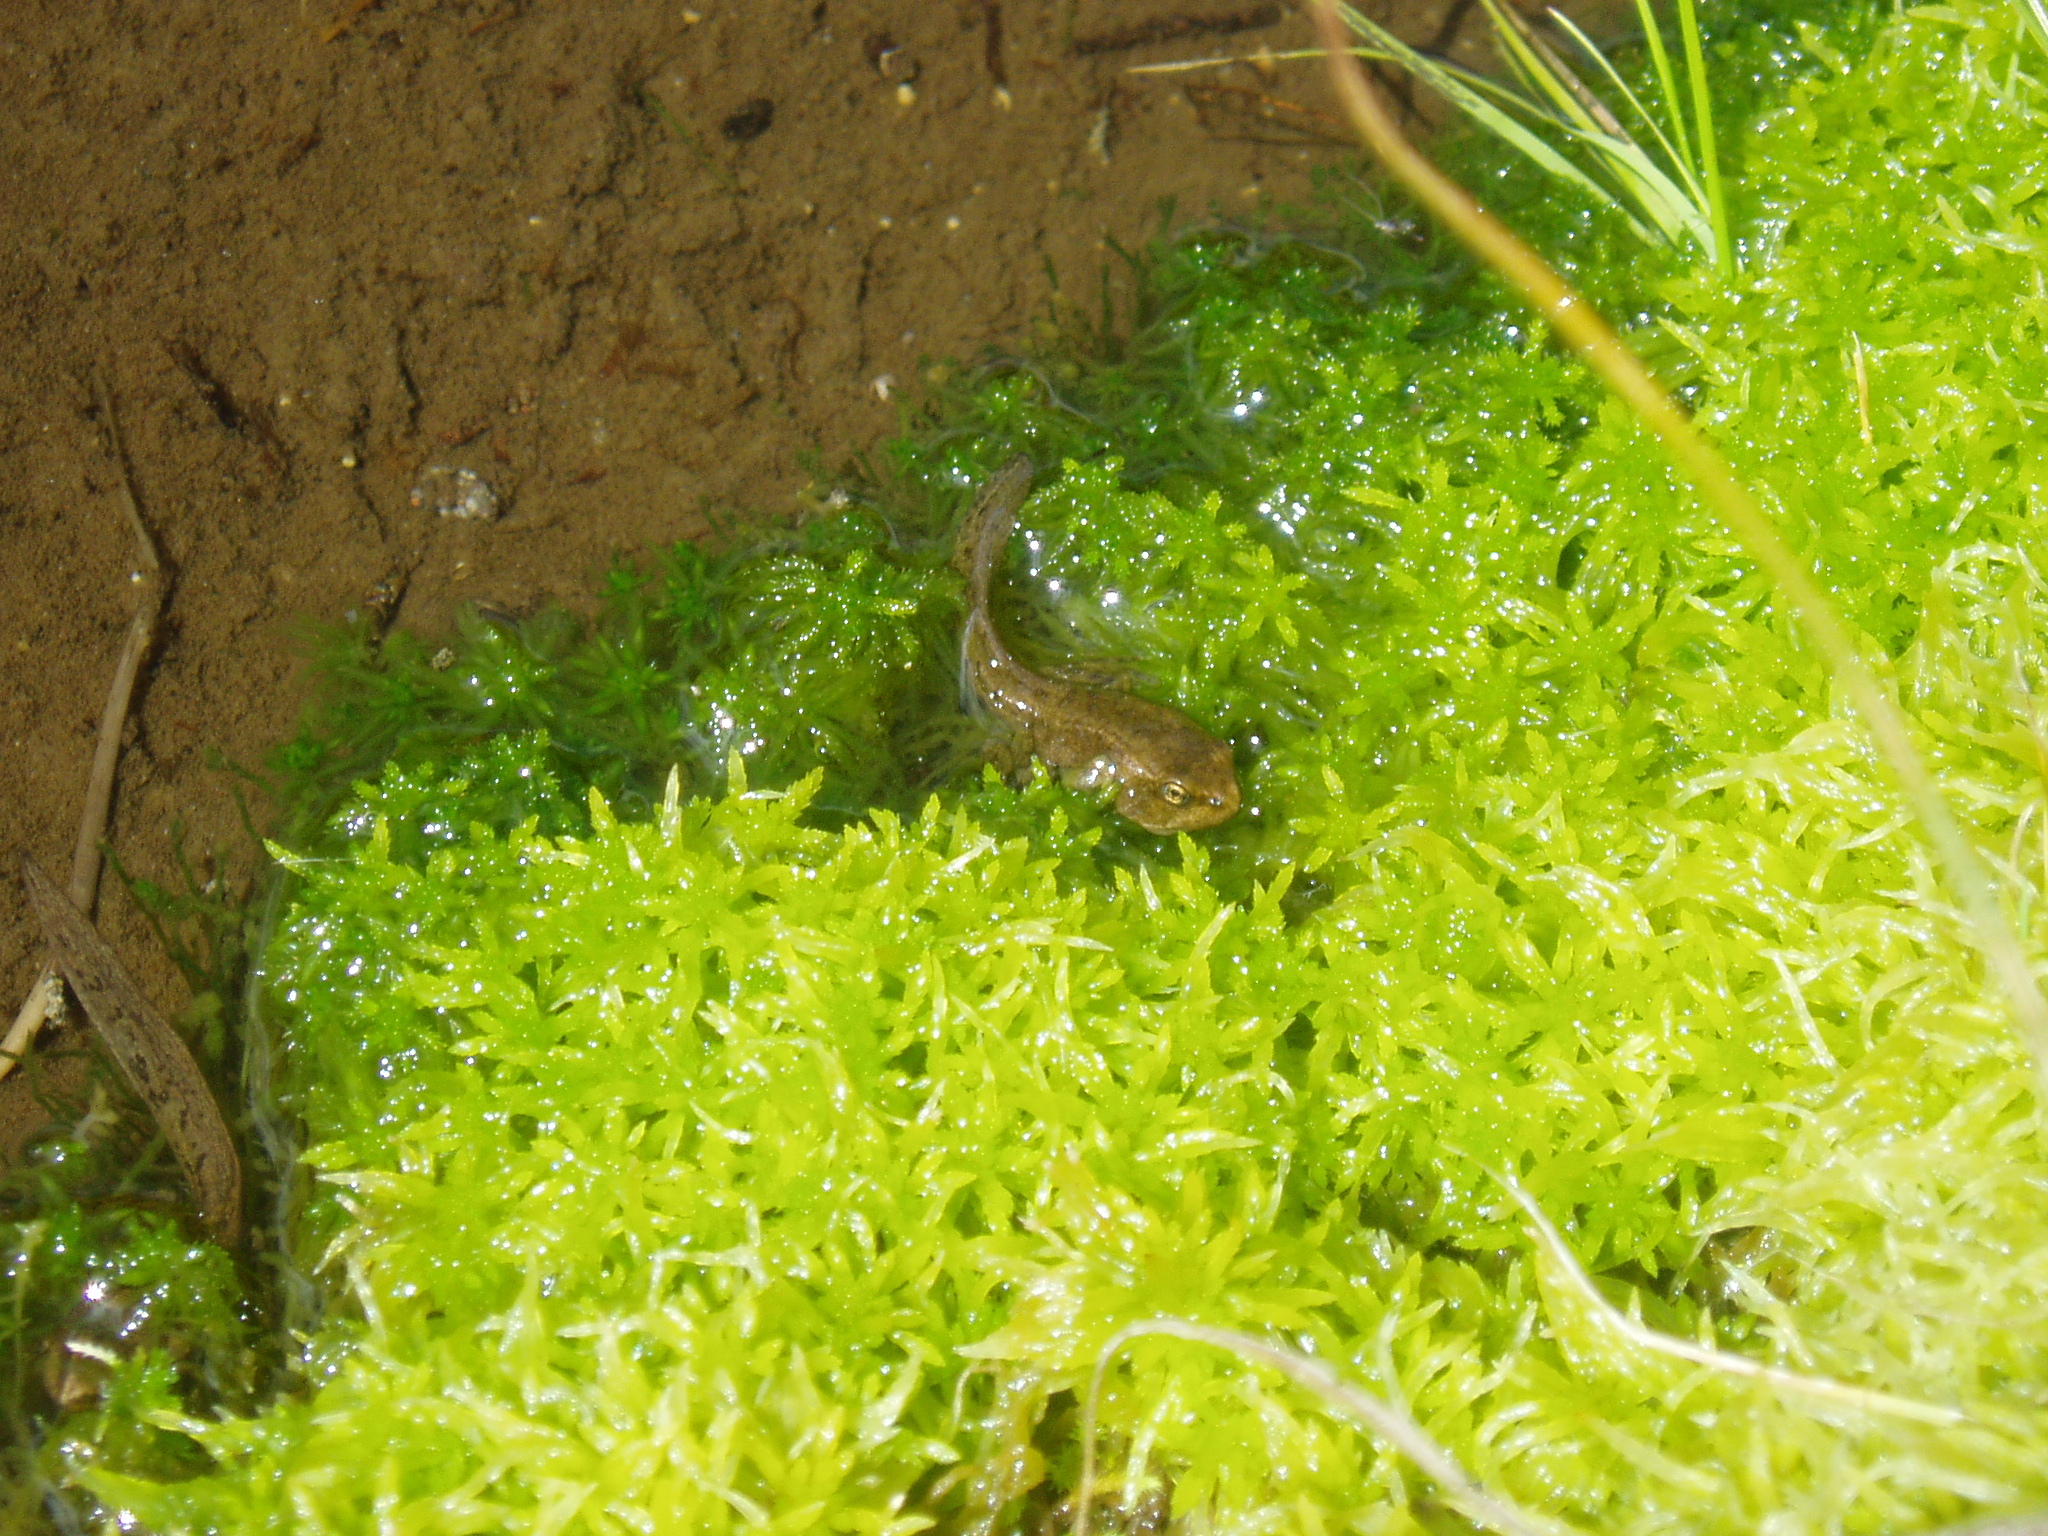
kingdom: Animalia
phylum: Chordata
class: Amphibia
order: Anura
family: Ranidae
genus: Rana
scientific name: Rana cascadae
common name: Cascades frog
